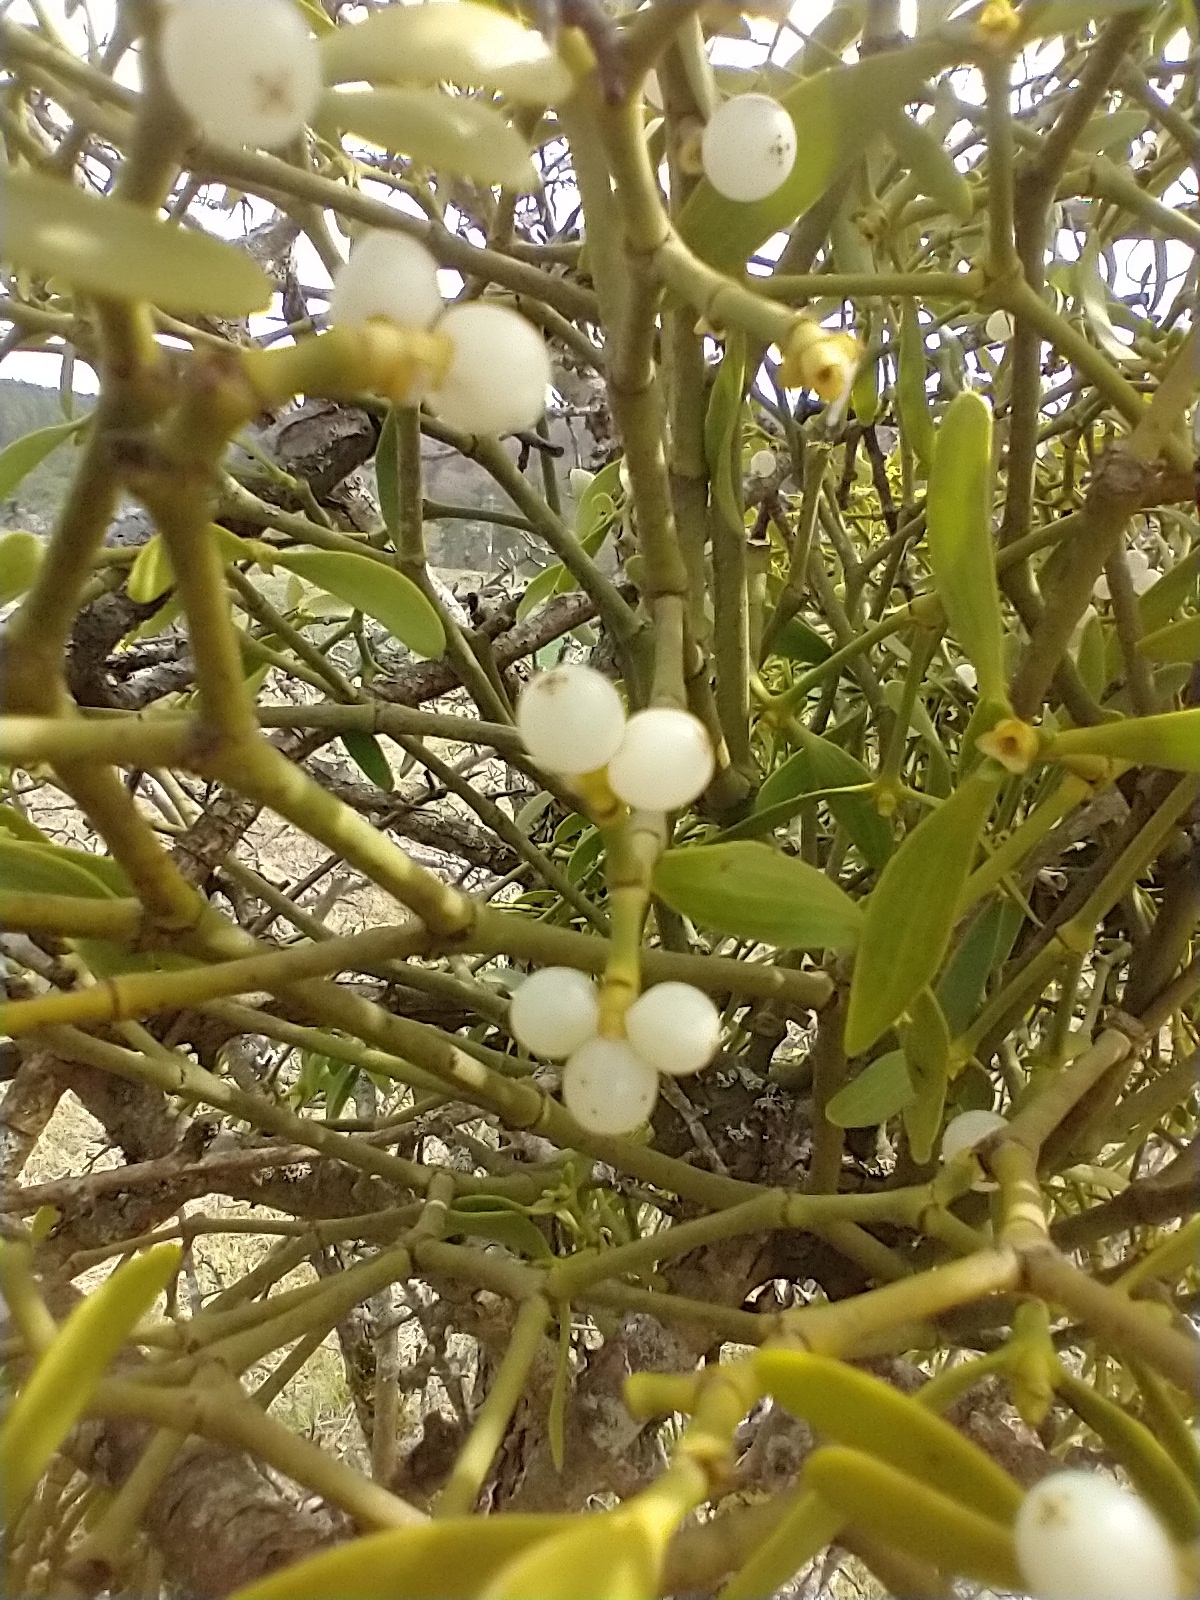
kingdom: Plantae
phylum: Tracheophyta
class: Magnoliopsida
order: Santalales
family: Viscaceae
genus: Viscum
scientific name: Viscum album
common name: Mistletoe
